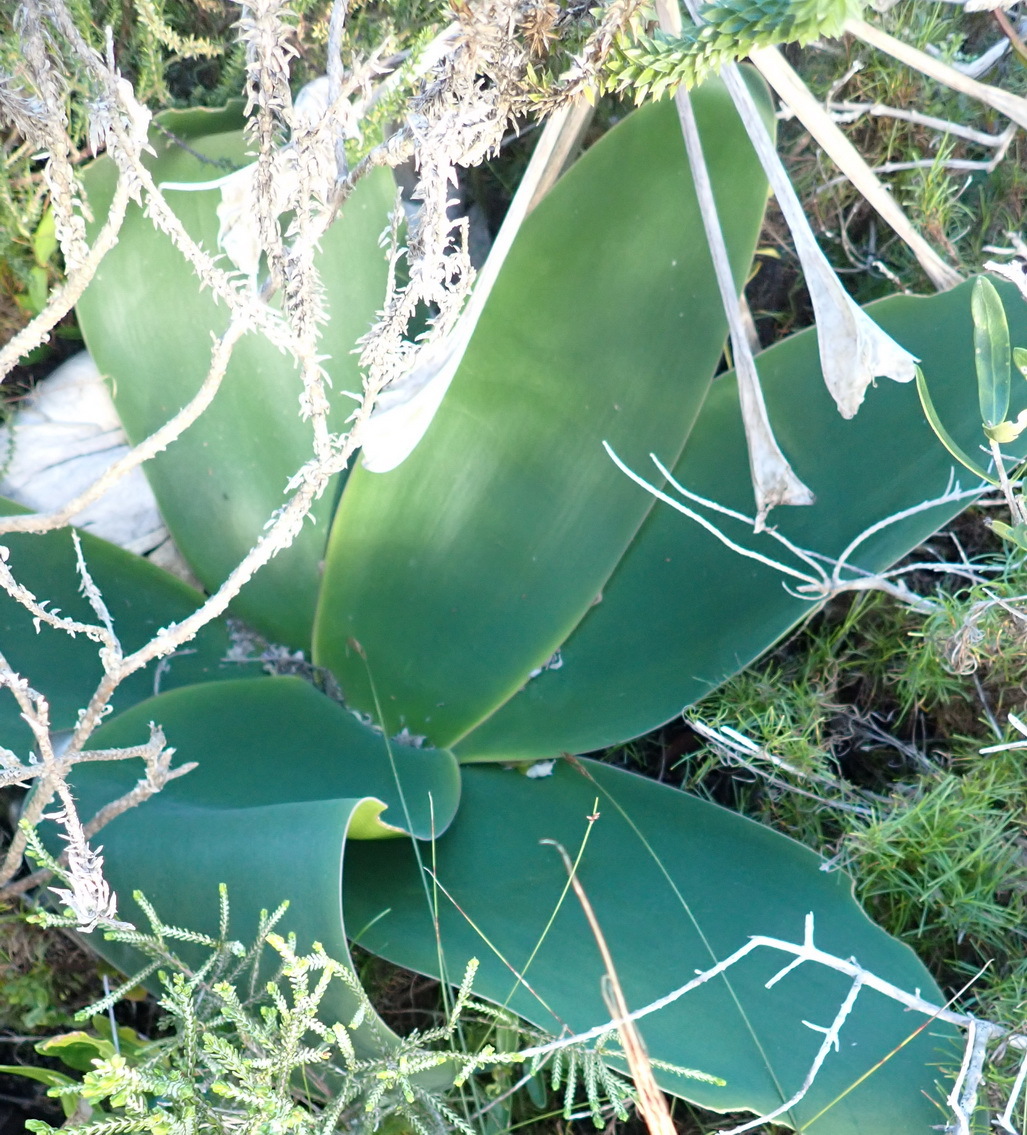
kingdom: Plantae
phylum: Tracheophyta
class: Liliopsida
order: Asparagales
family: Amaryllidaceae
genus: Brunsvigia
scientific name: Brunsvigia orientalis
